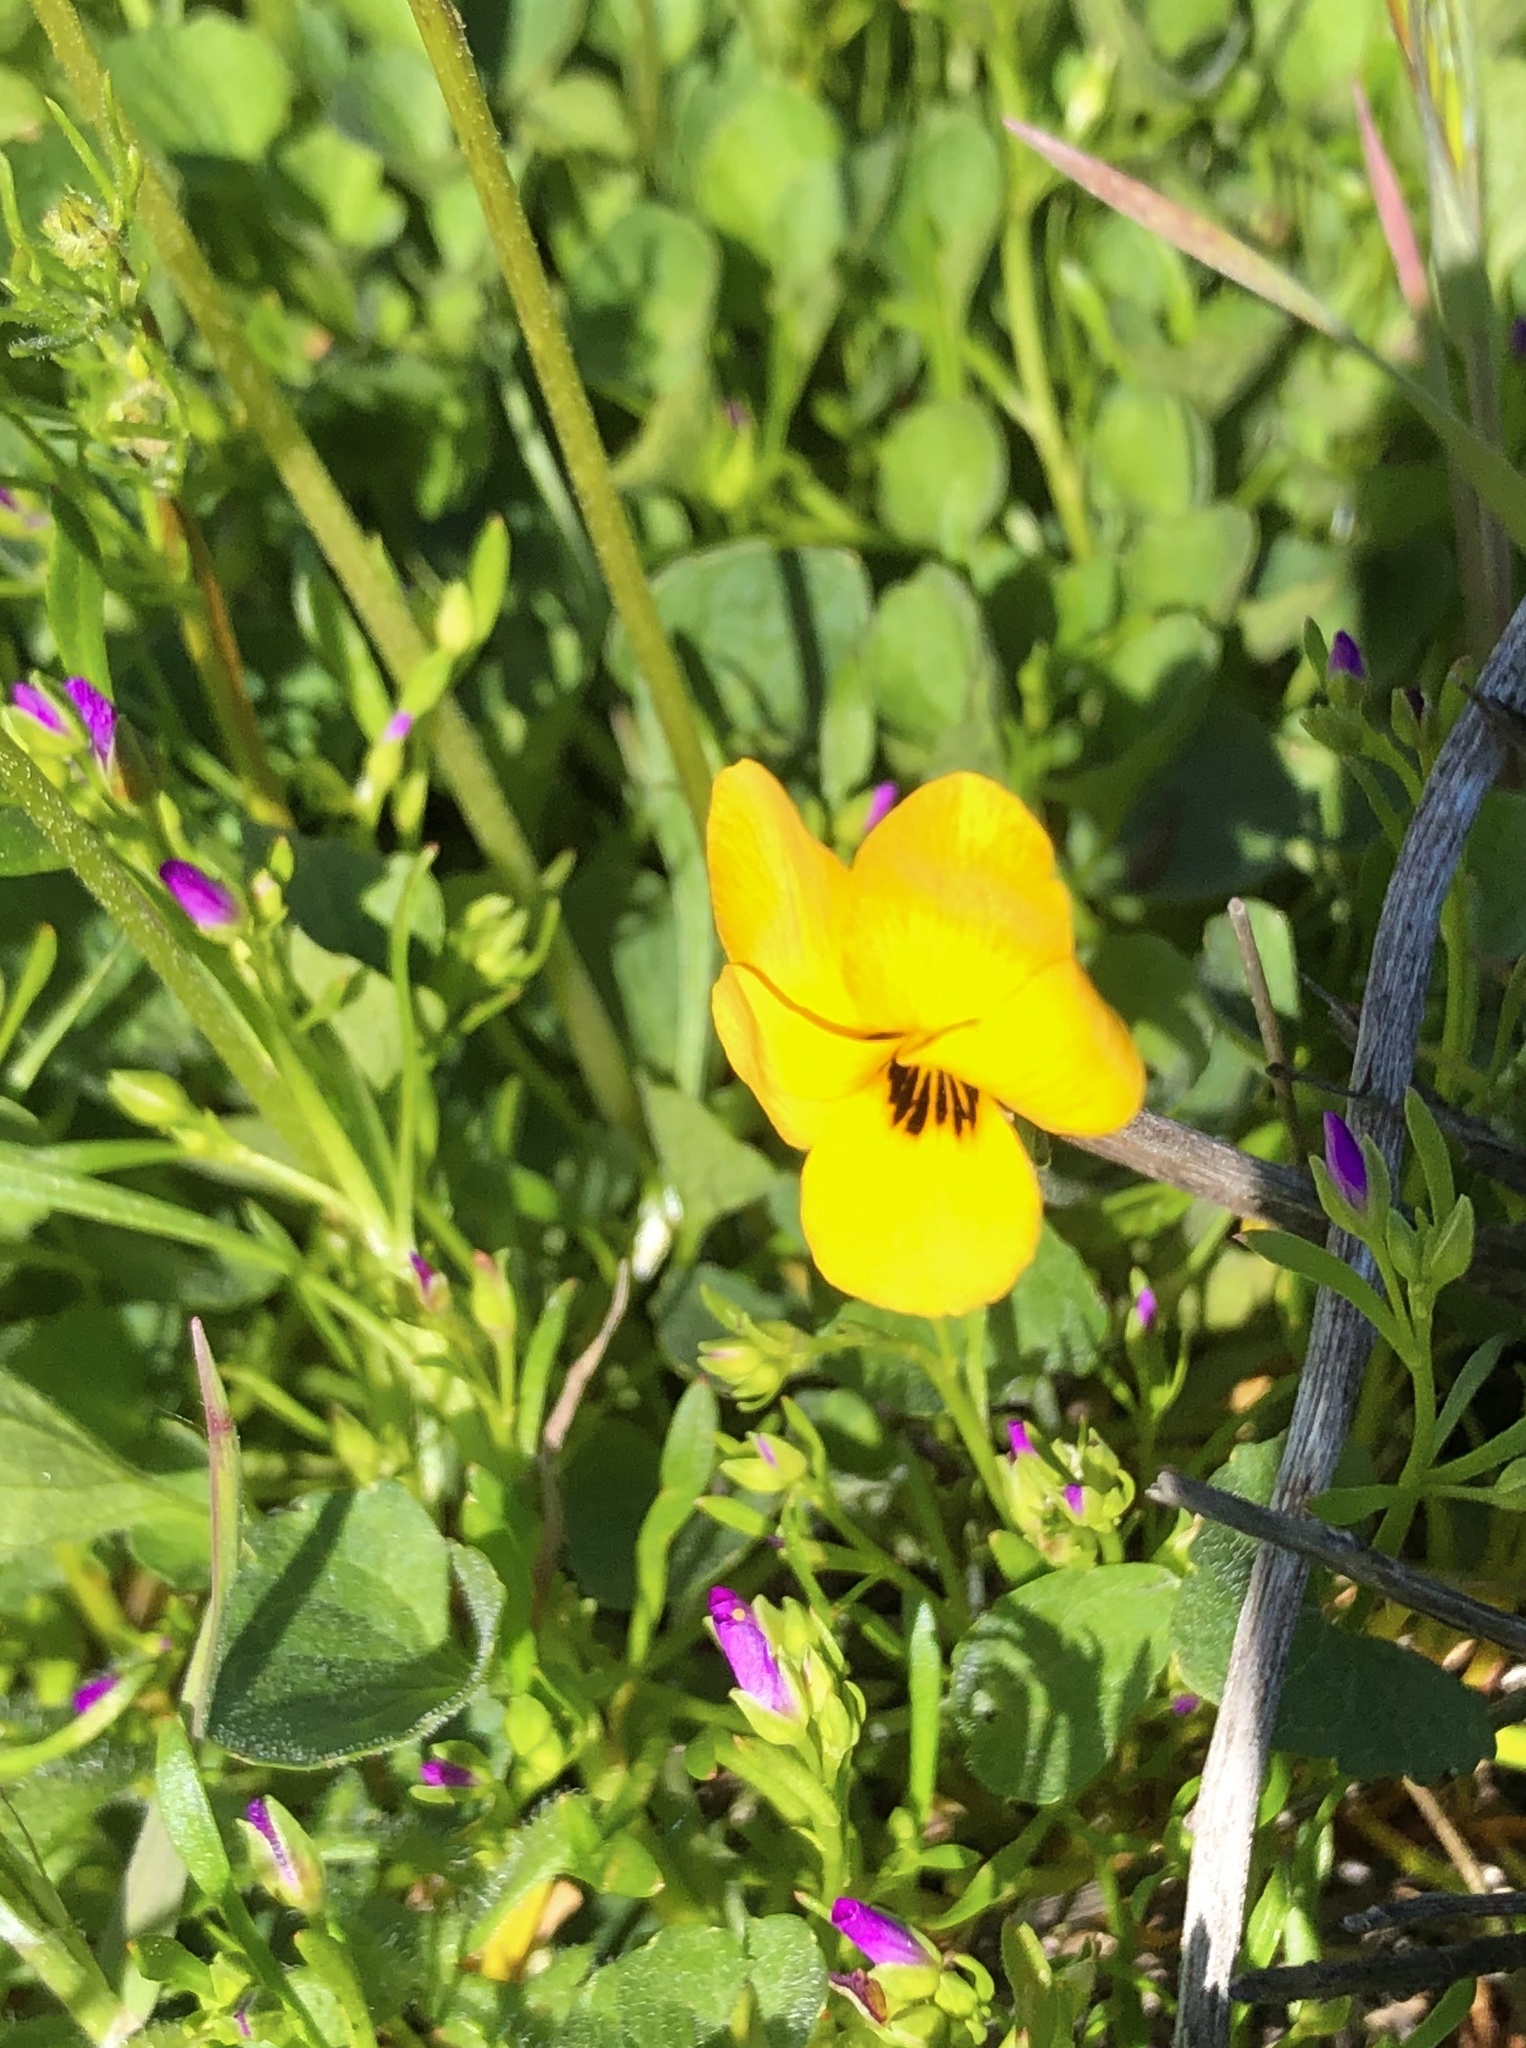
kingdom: Plantae
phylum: Tracheophyta
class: Magnoliopsida
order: Malpighiales
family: Violaceae
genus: Viola
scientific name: Viola pedunculata
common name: California golden violet
